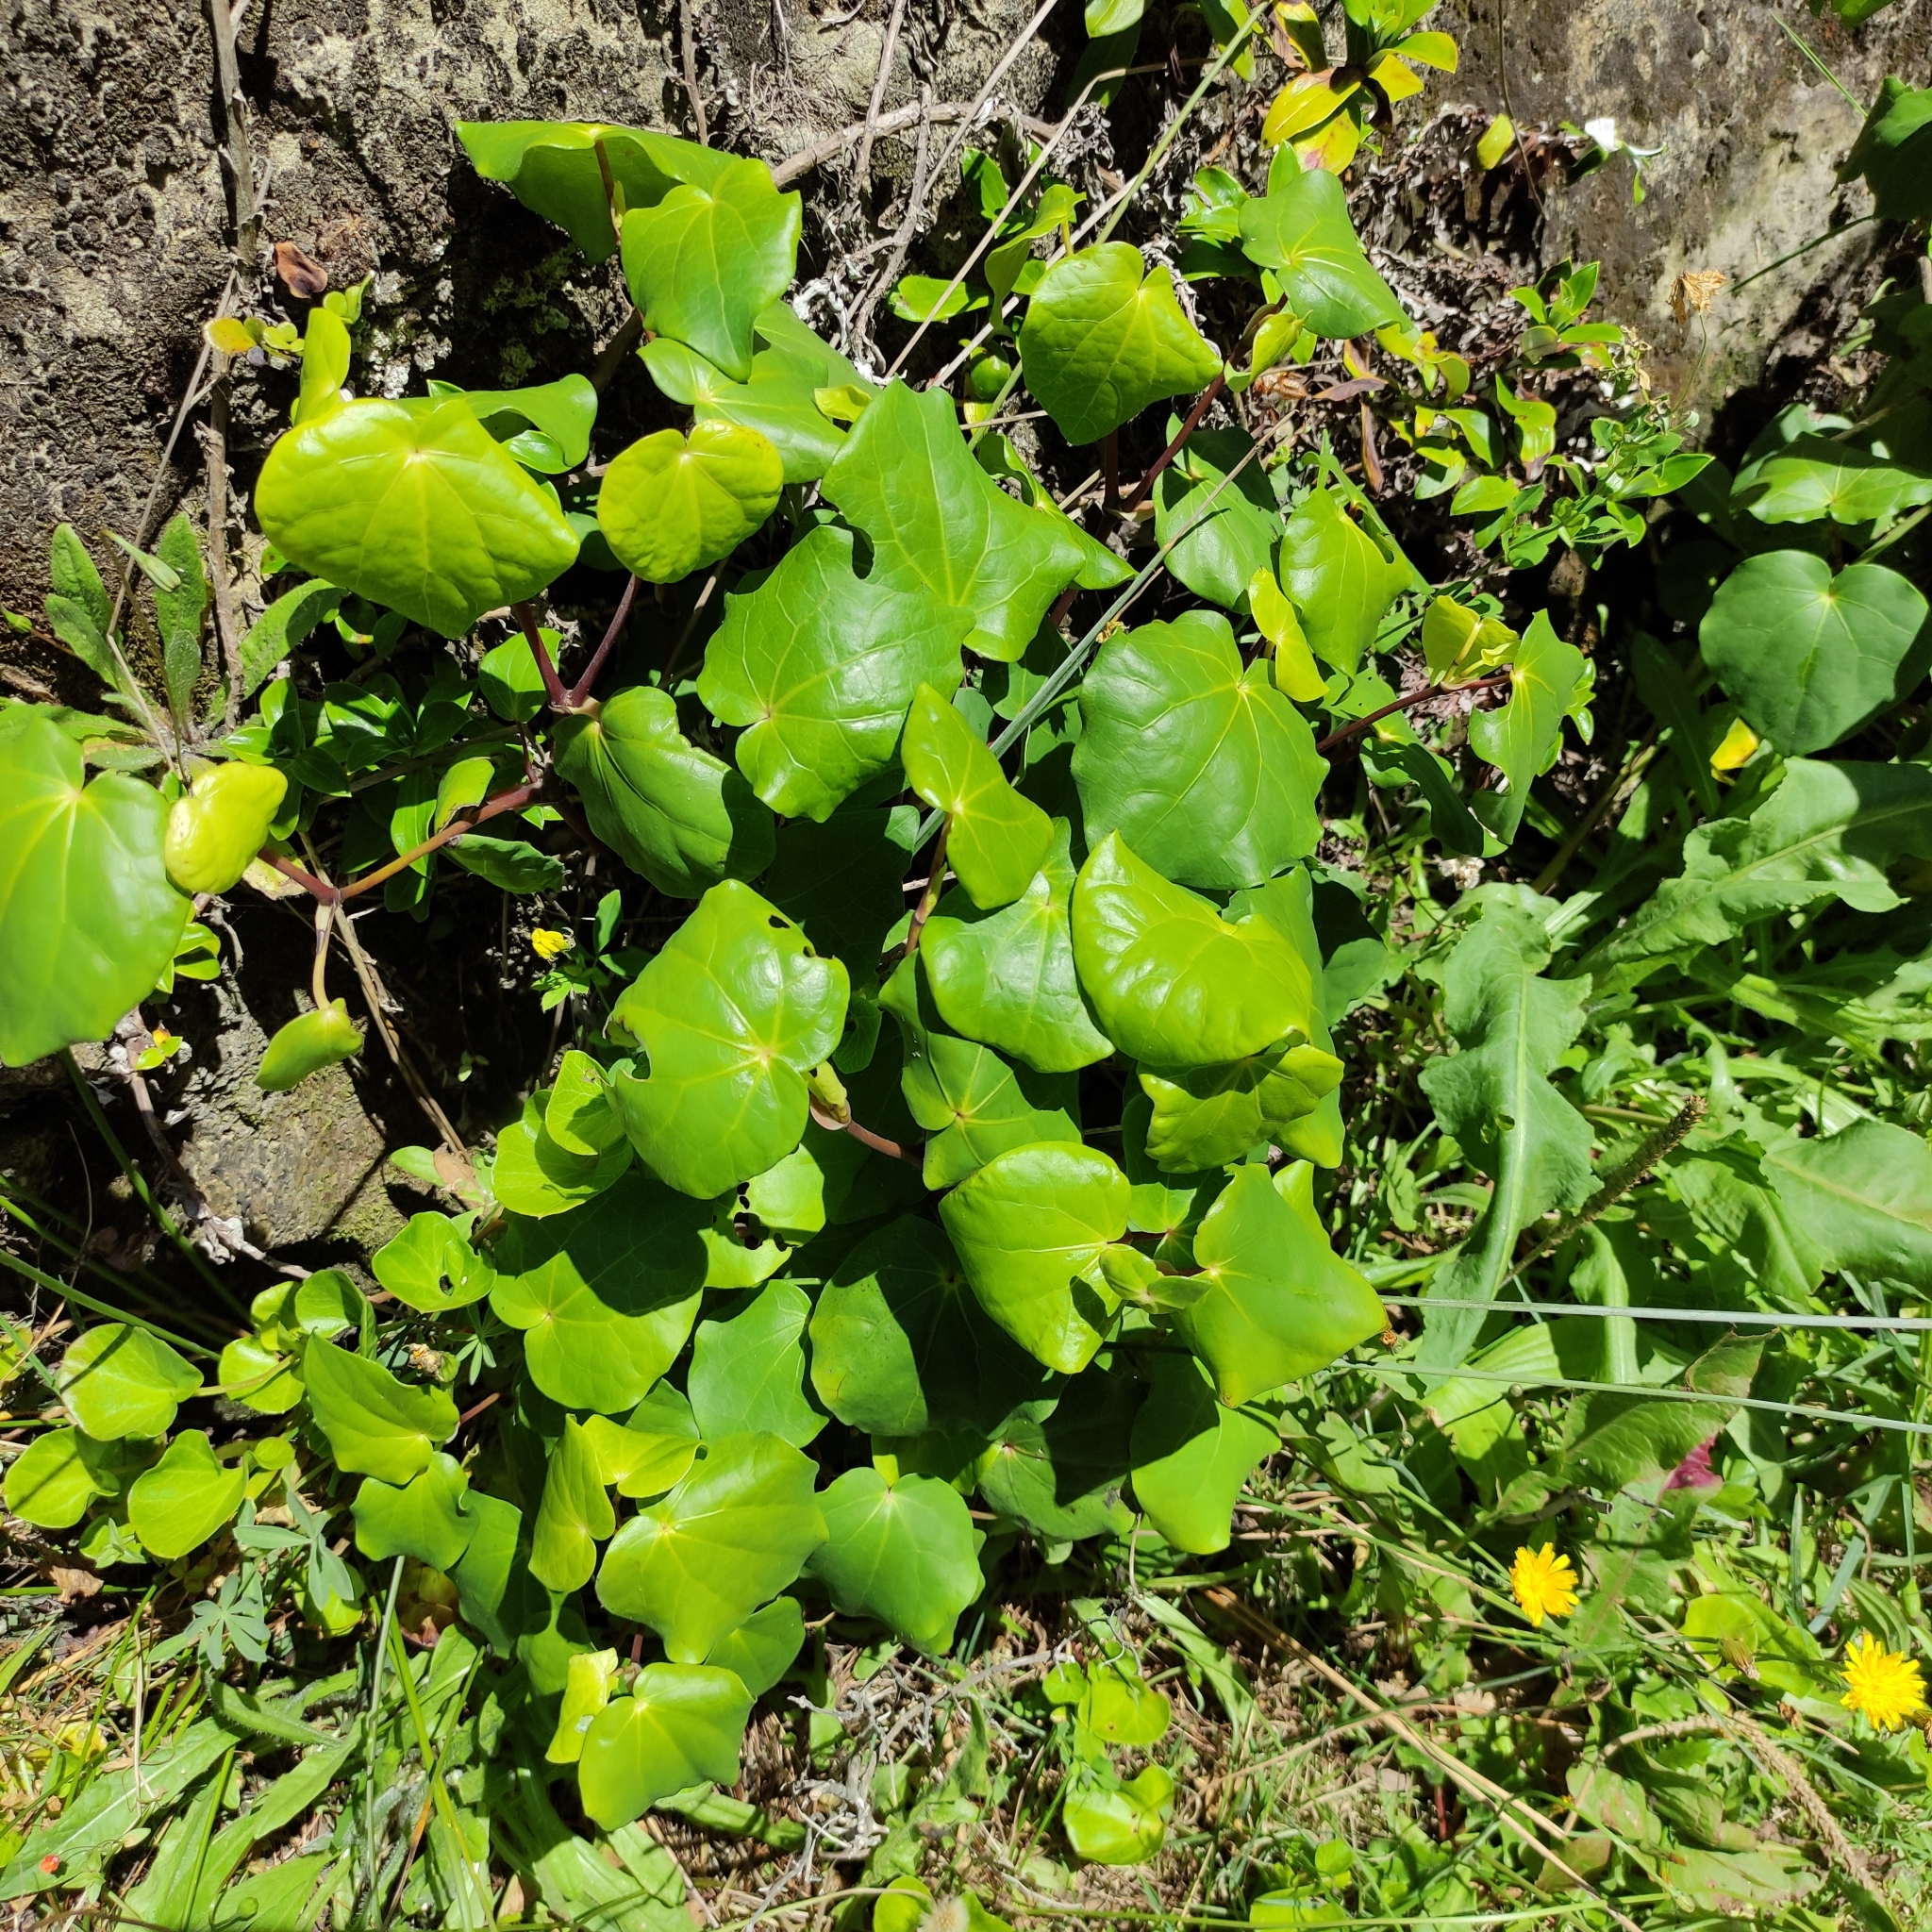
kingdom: Plantae
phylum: Tracheophyta
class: Magnoliopsida
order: Piperales
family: Piperaceae
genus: Macropiper
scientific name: Macropiper excelsum
